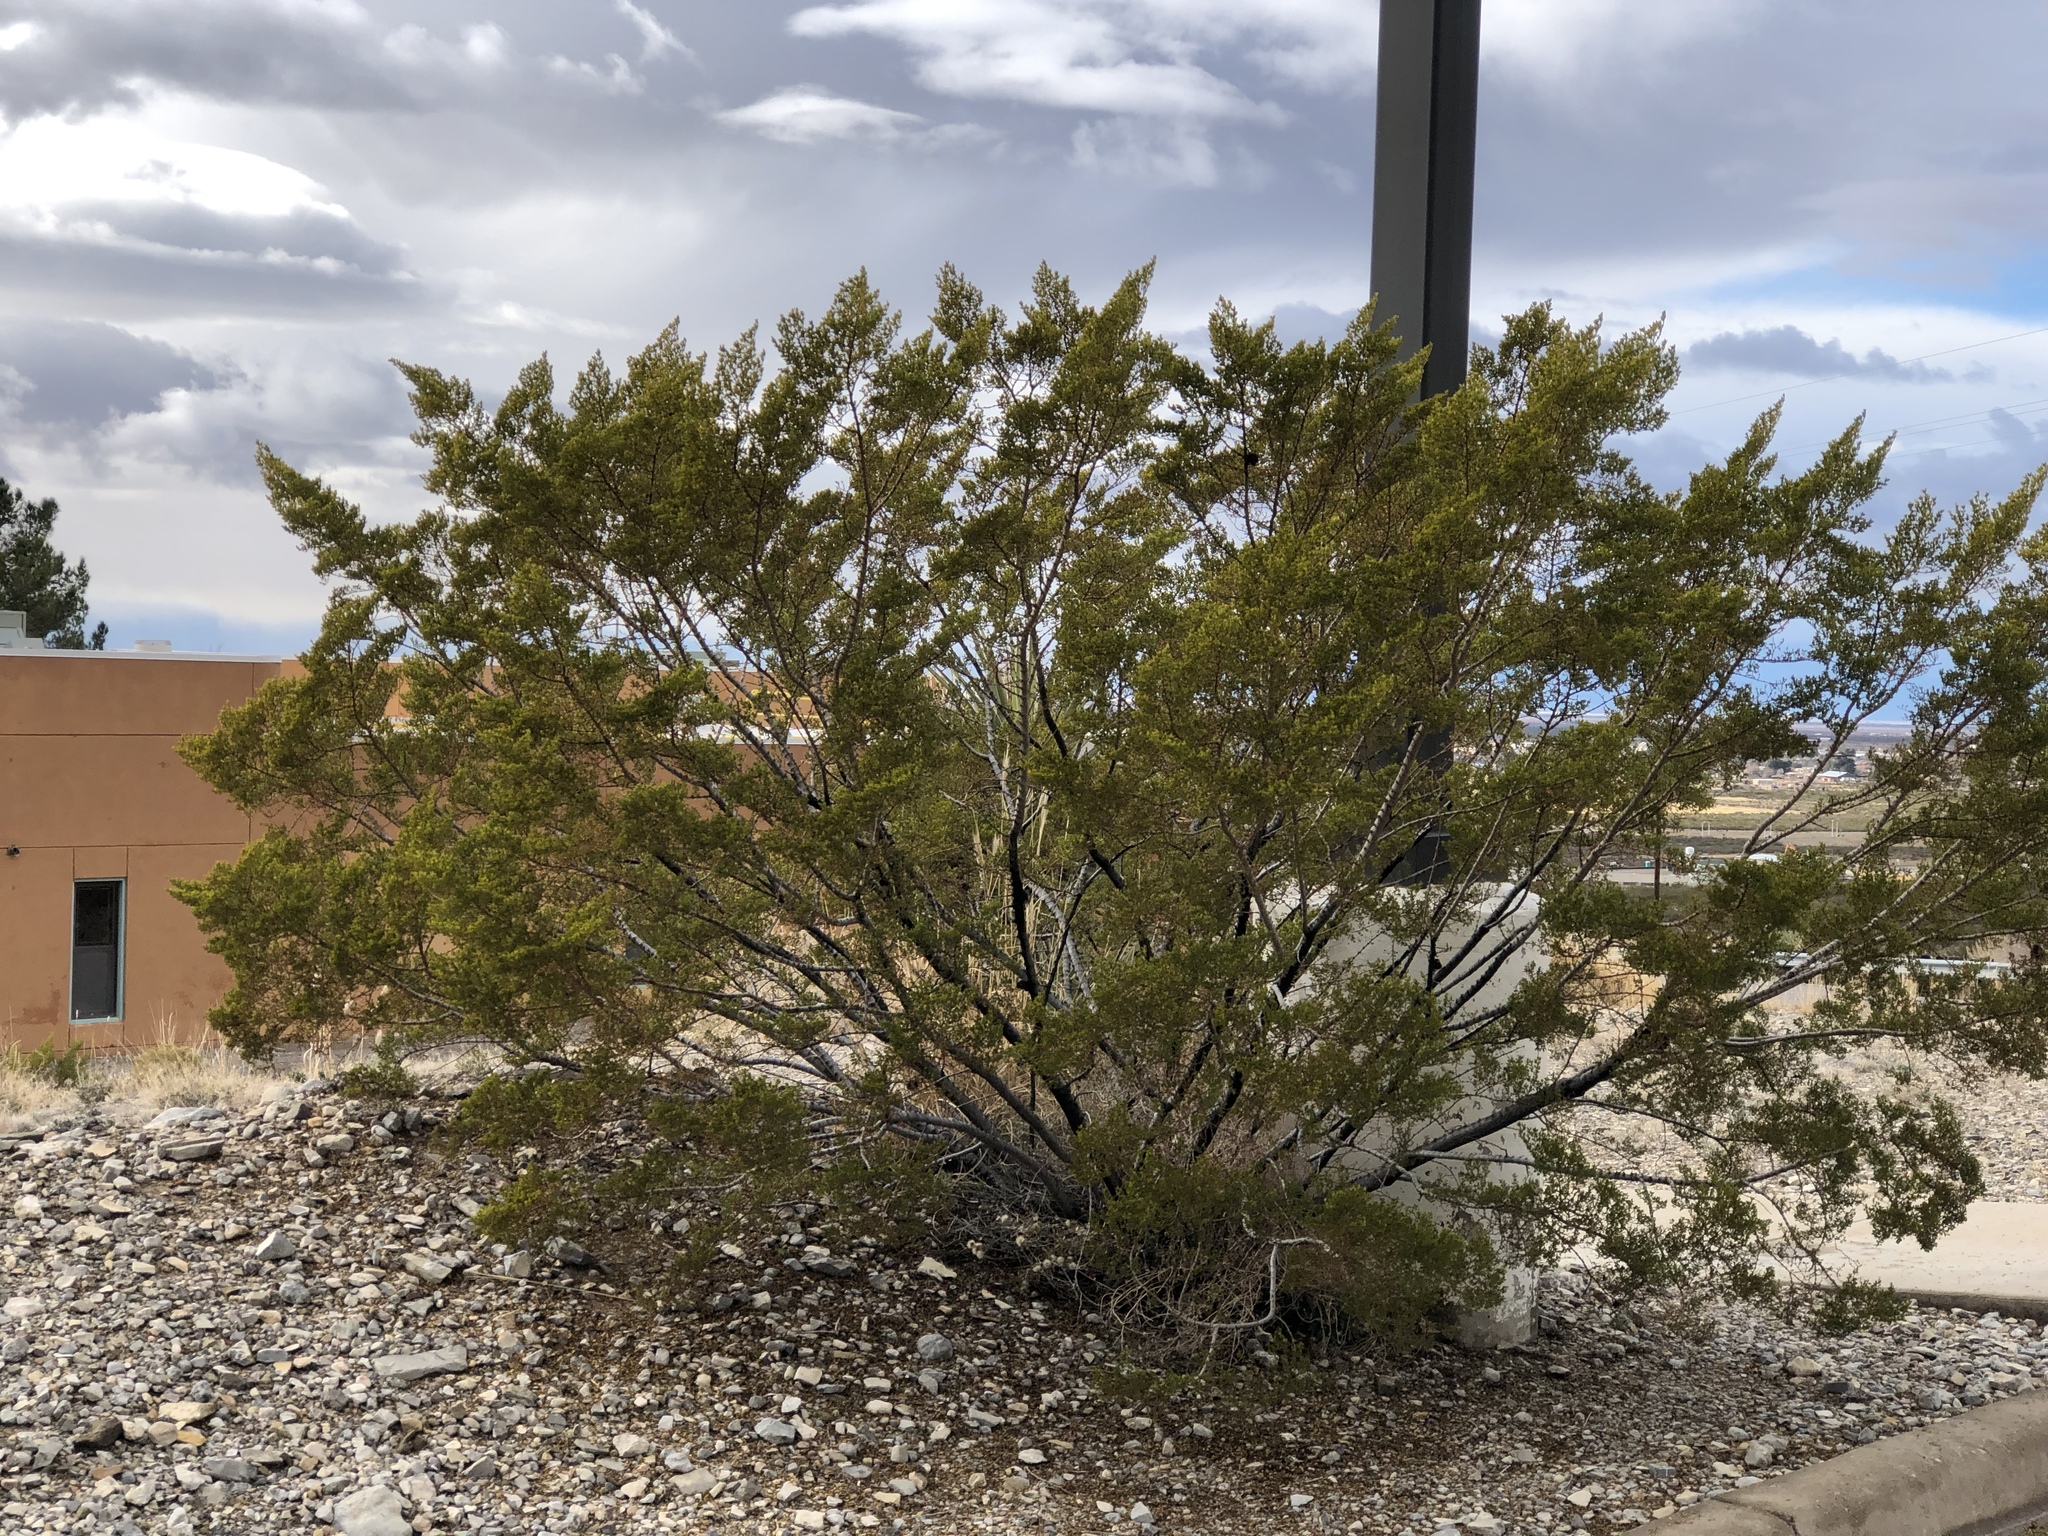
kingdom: Plantae
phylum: Tracheophyta
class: Magnoliopsida
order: Zygophyllales
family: Zygophyllaceae
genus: Larrea
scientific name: Larrea tridentata
